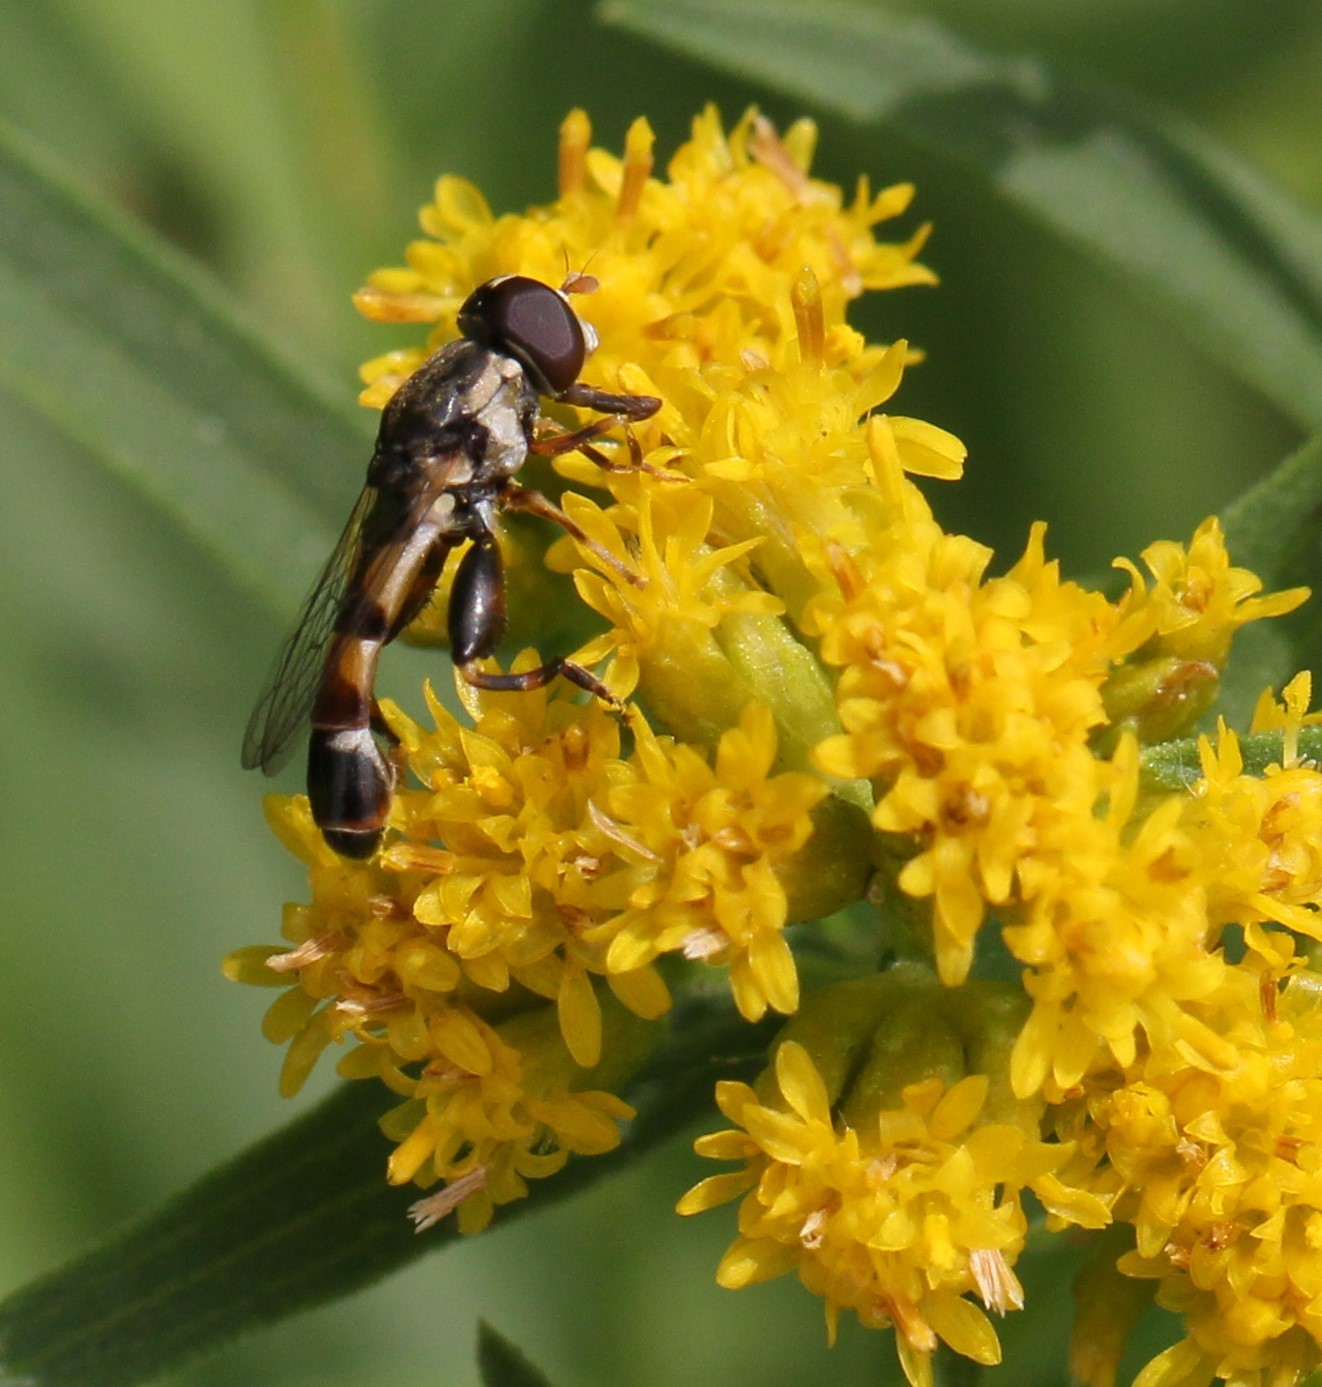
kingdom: Animalia
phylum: Arthropoda
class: Insecta
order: Diptera
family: Syrphidae
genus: Syritta
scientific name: Syritta pipiens
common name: Hover fly
